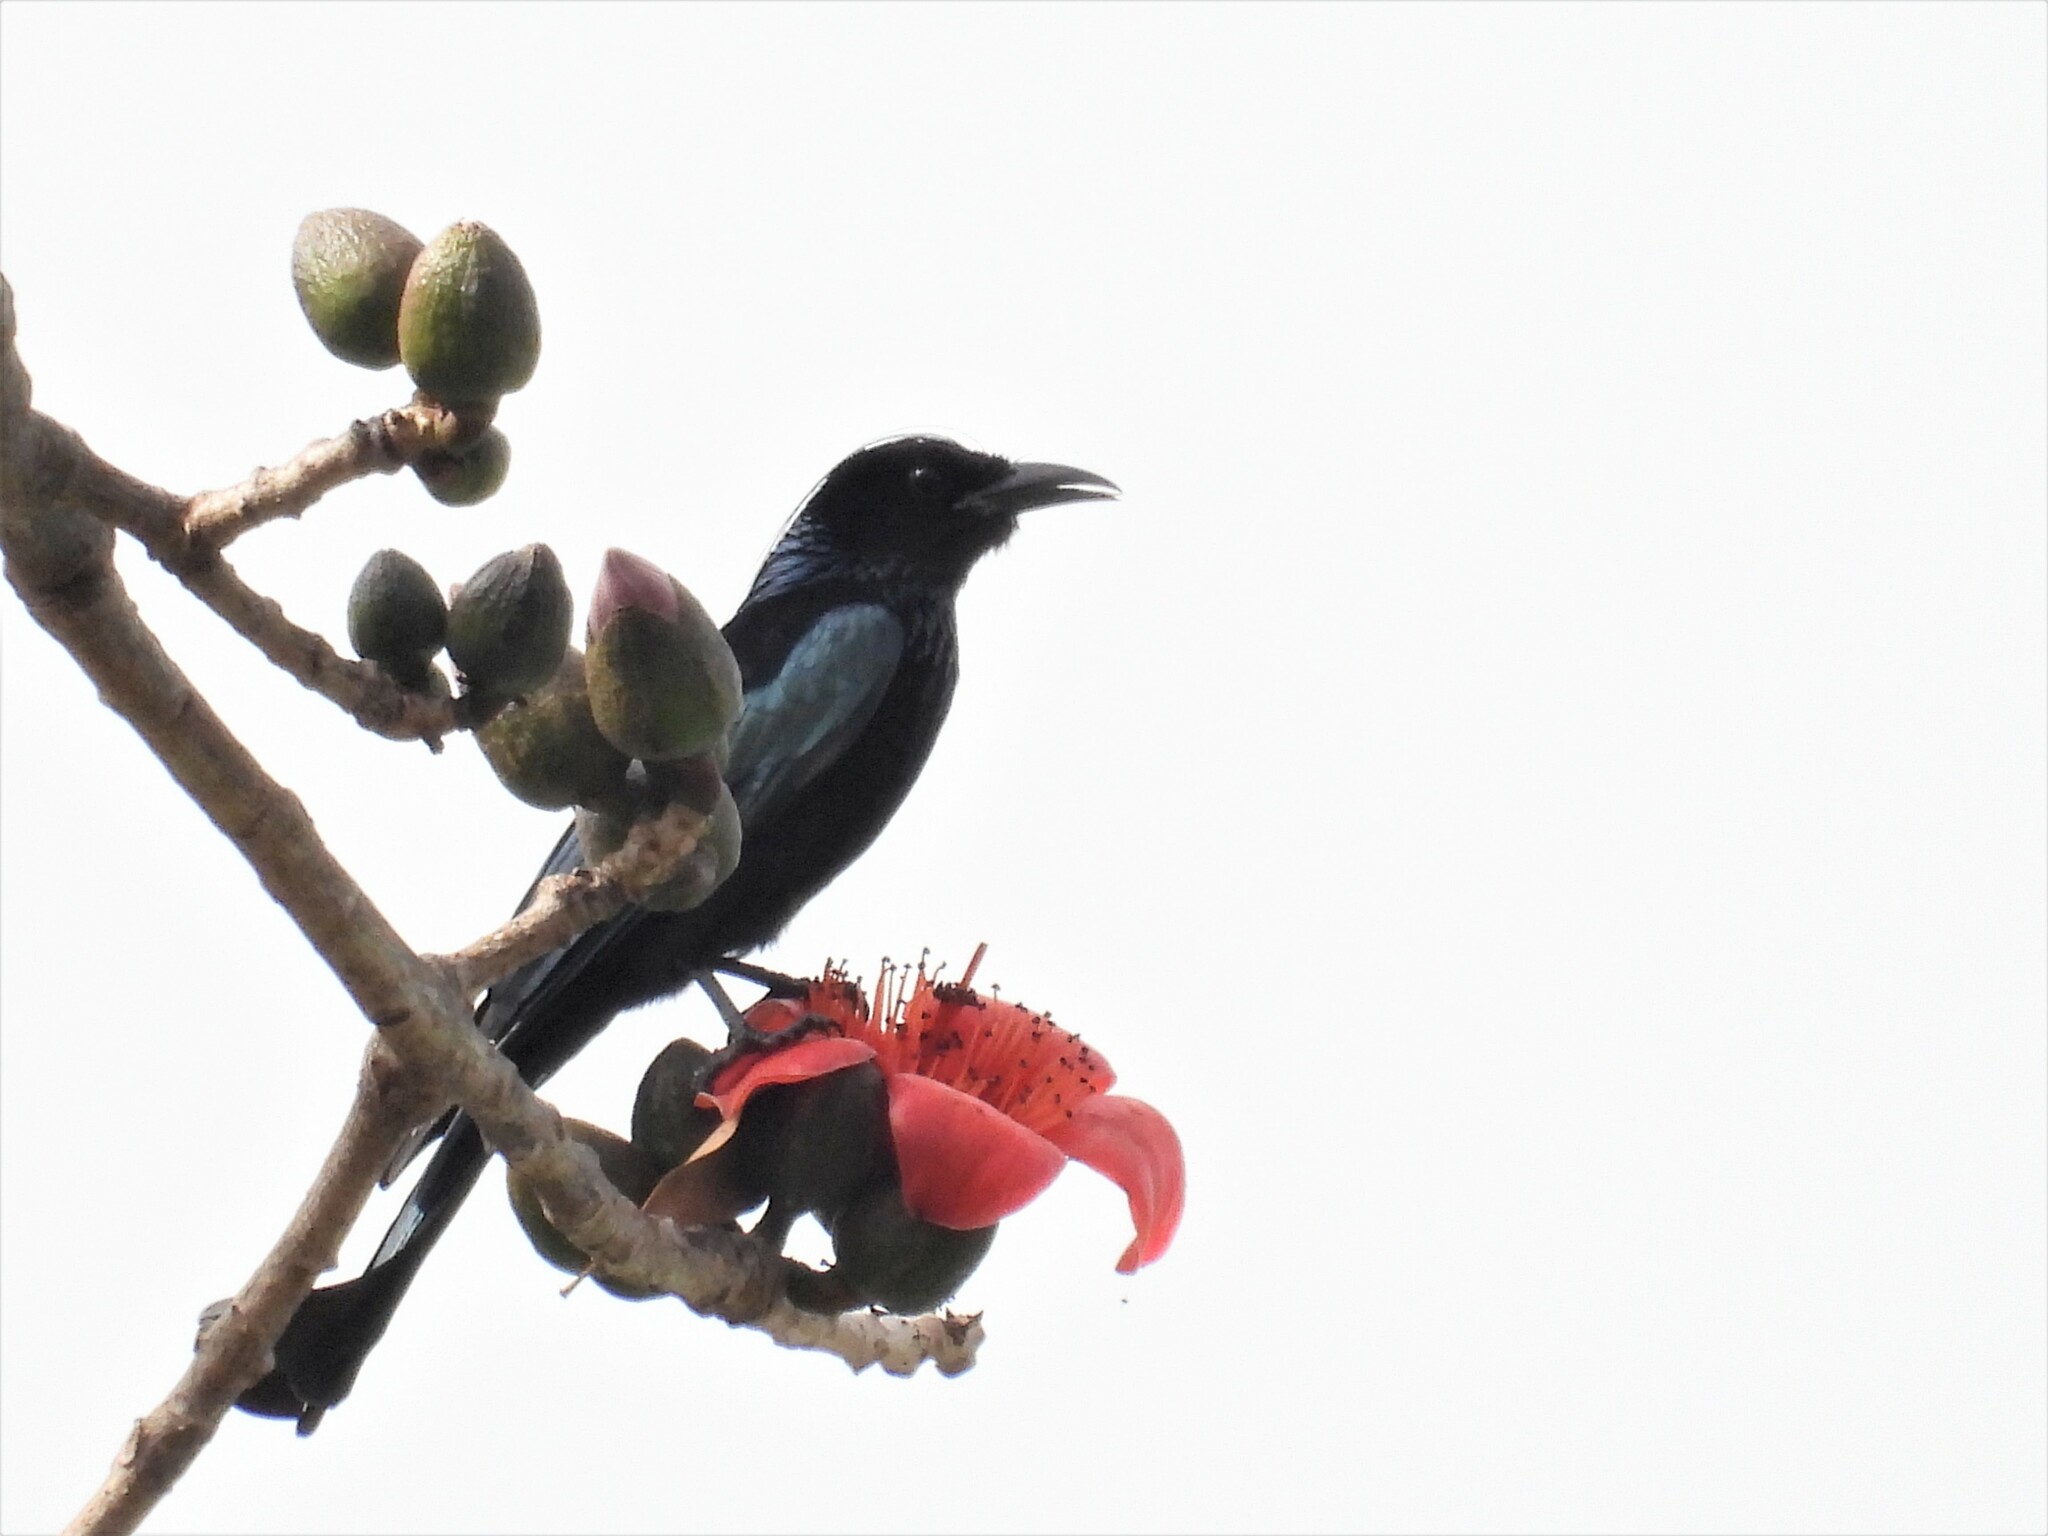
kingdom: Animalia
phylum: Chordata
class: Aves
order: Passeriformes
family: Dicruridae
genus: Dicrurus
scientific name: Dicrurus hottentottus
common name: Hair-crested drongo
